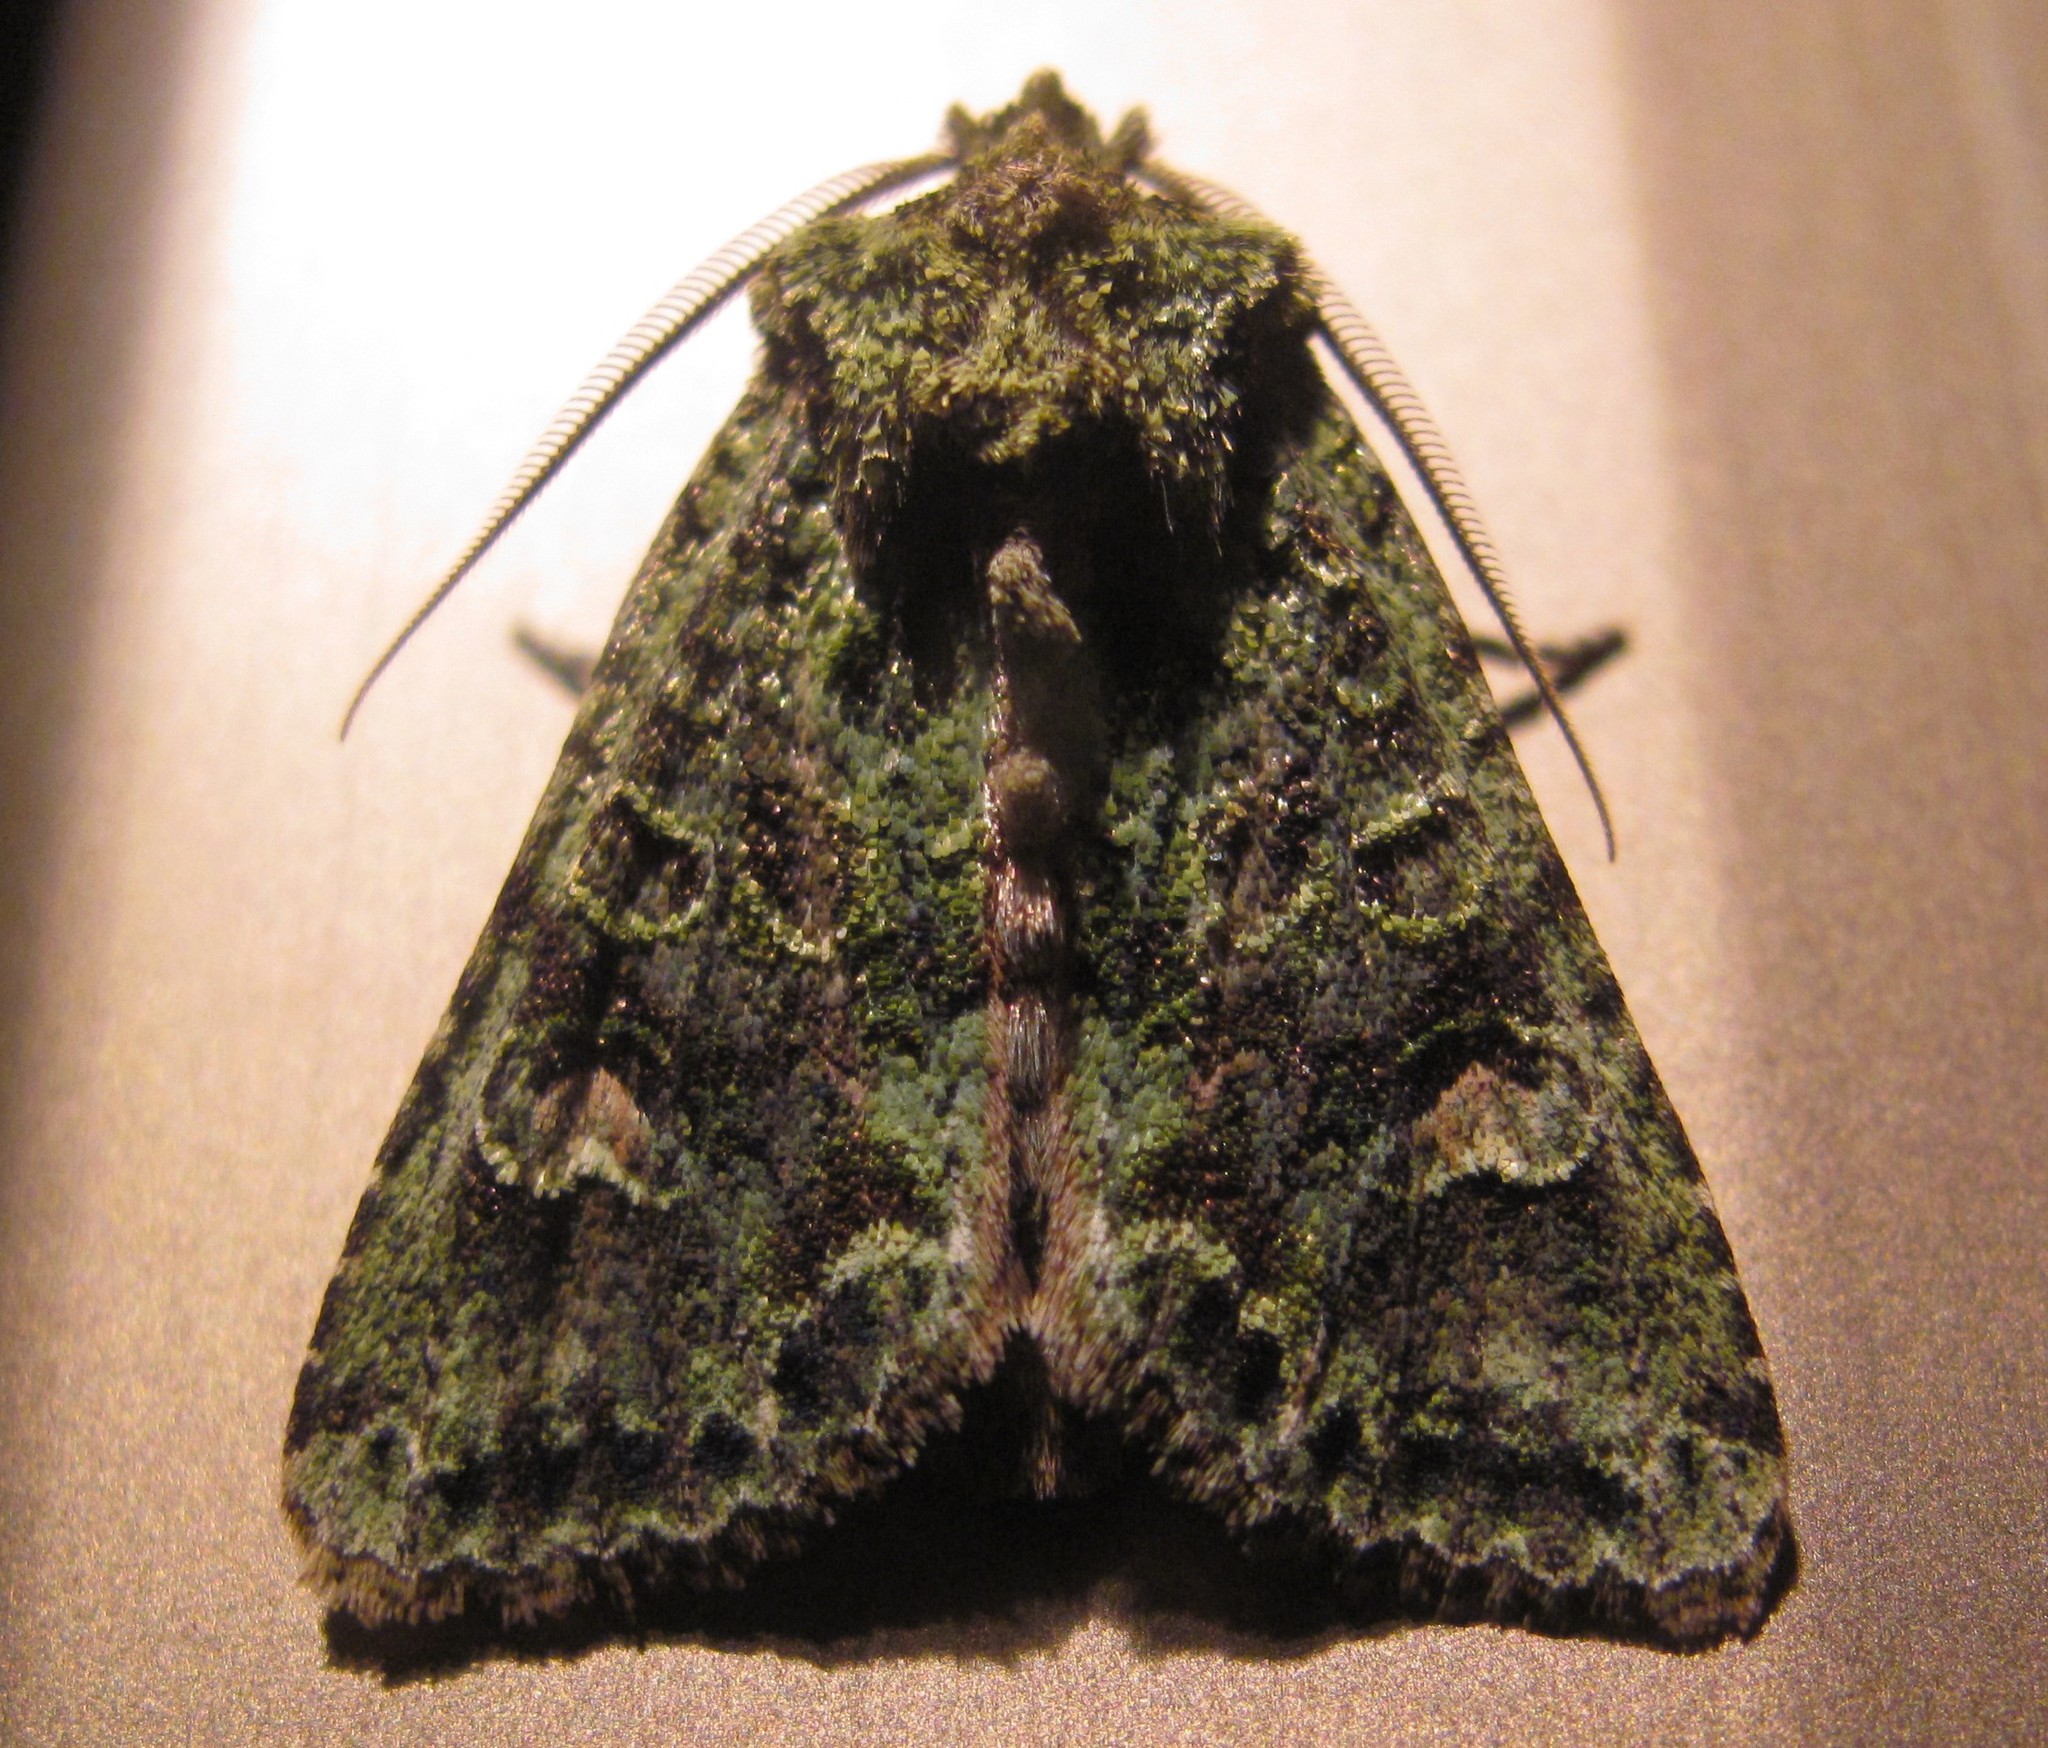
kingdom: Animalia
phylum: Arthropoda
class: Insecta
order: Lepidoptera
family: Noctuidae
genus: Ichneutica
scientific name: Ichneutica
